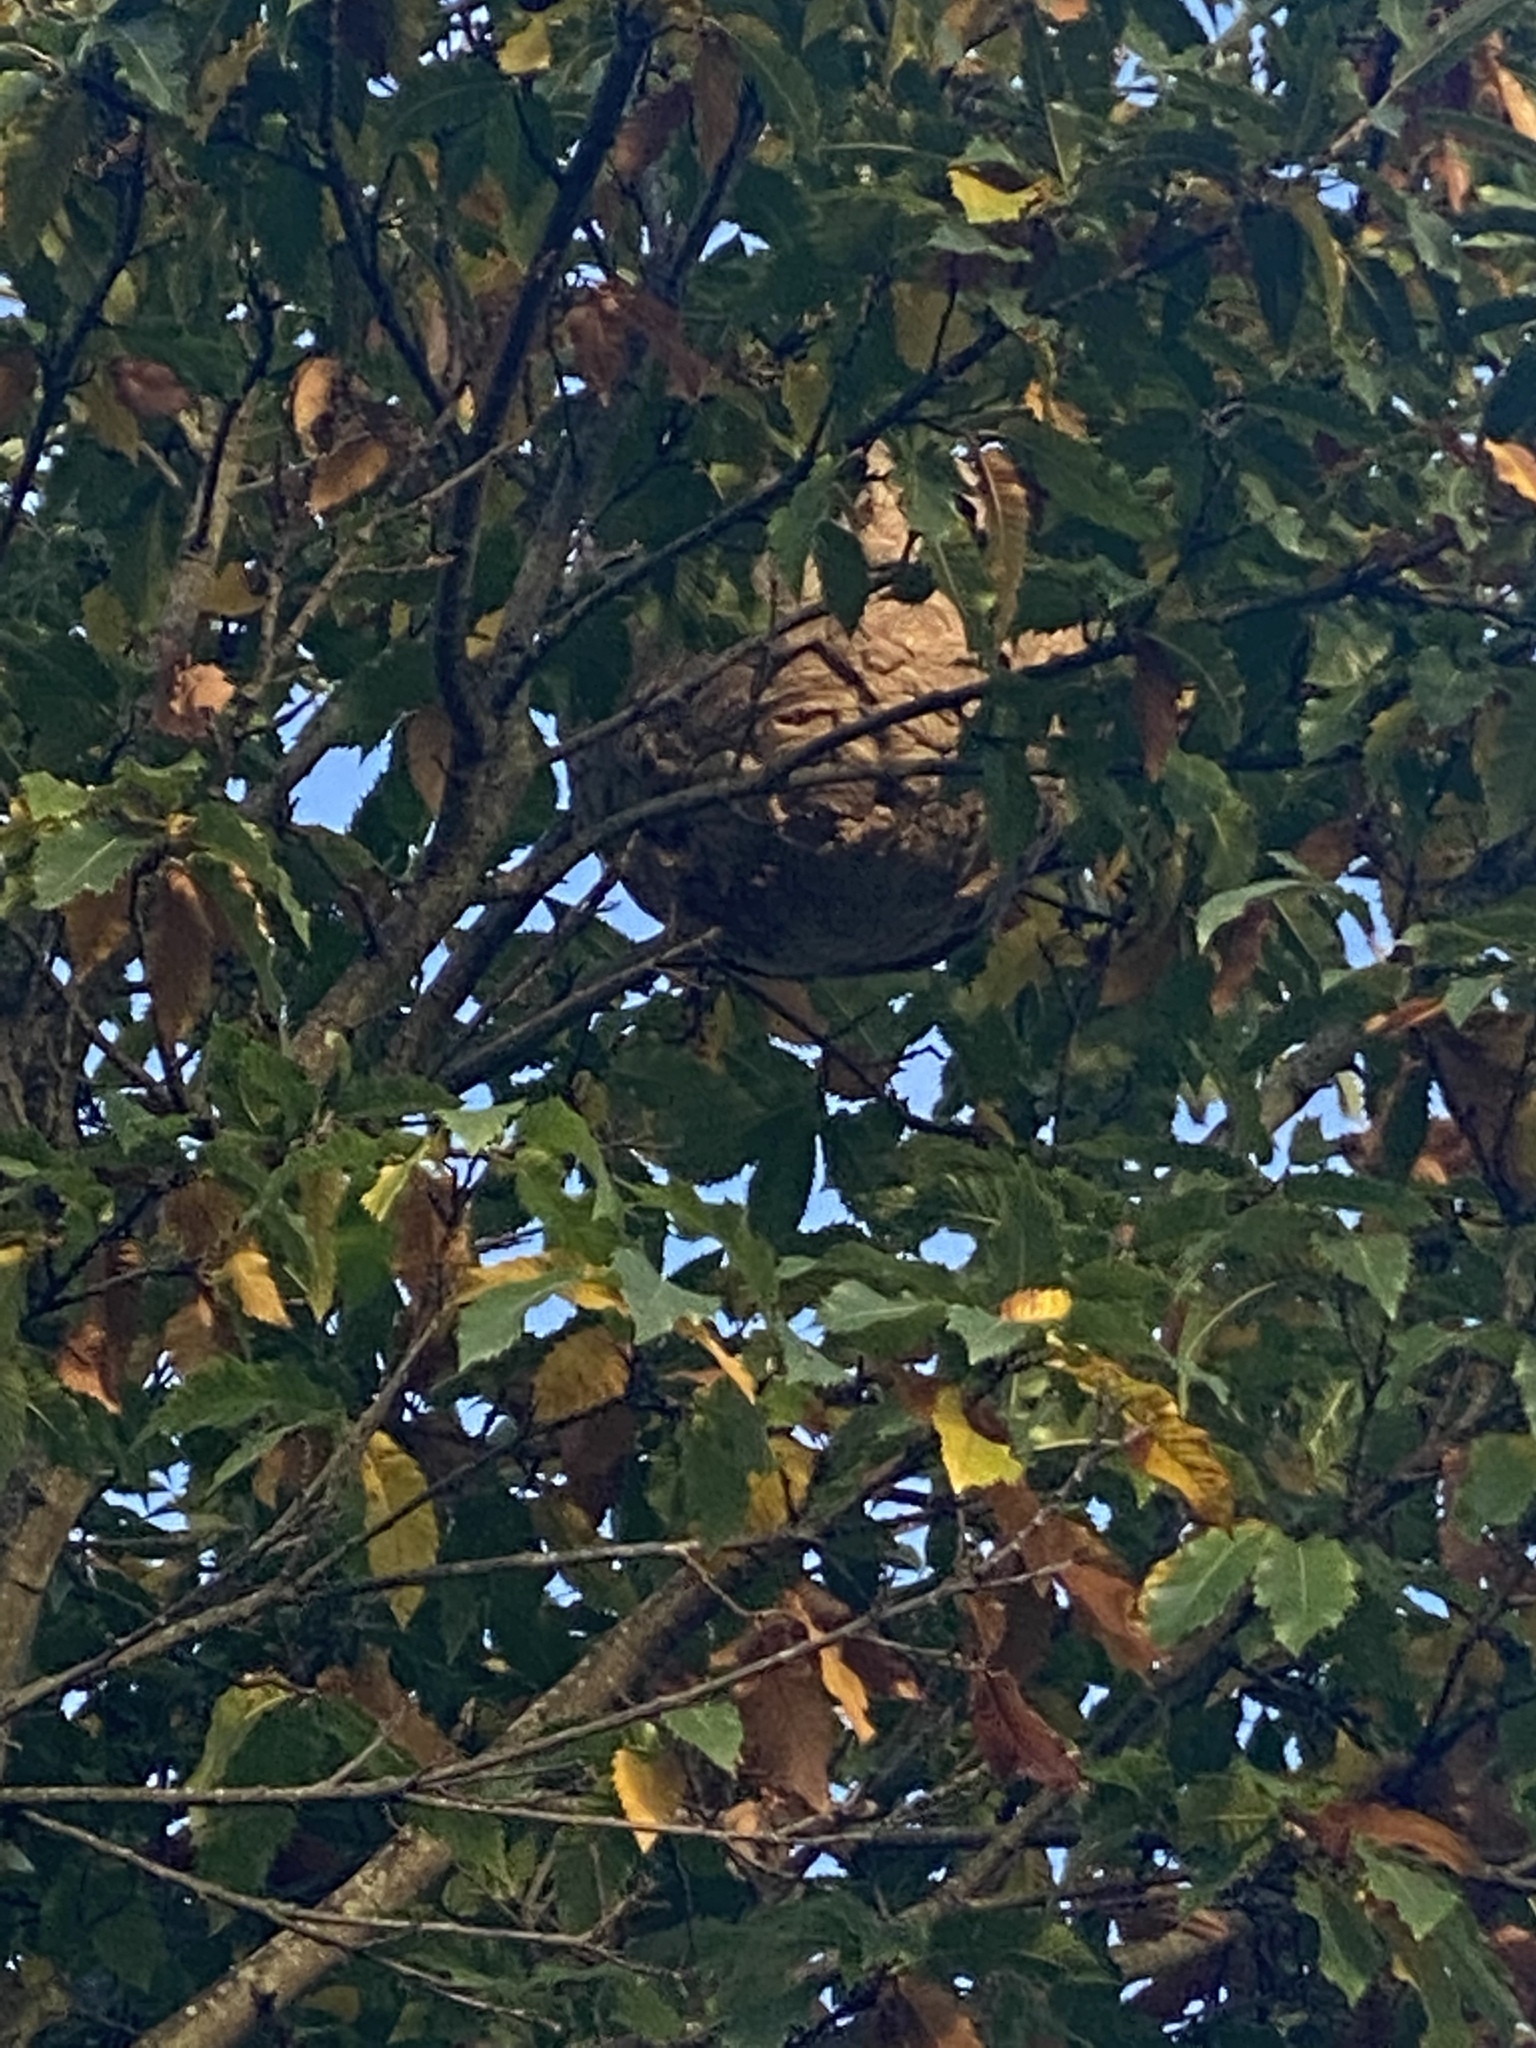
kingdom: Animalia
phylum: Arthropoda
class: Insecta
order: Hymenoptera
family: Vespidae
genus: Vespa
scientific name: Vespa velutina
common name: Asian hornet
